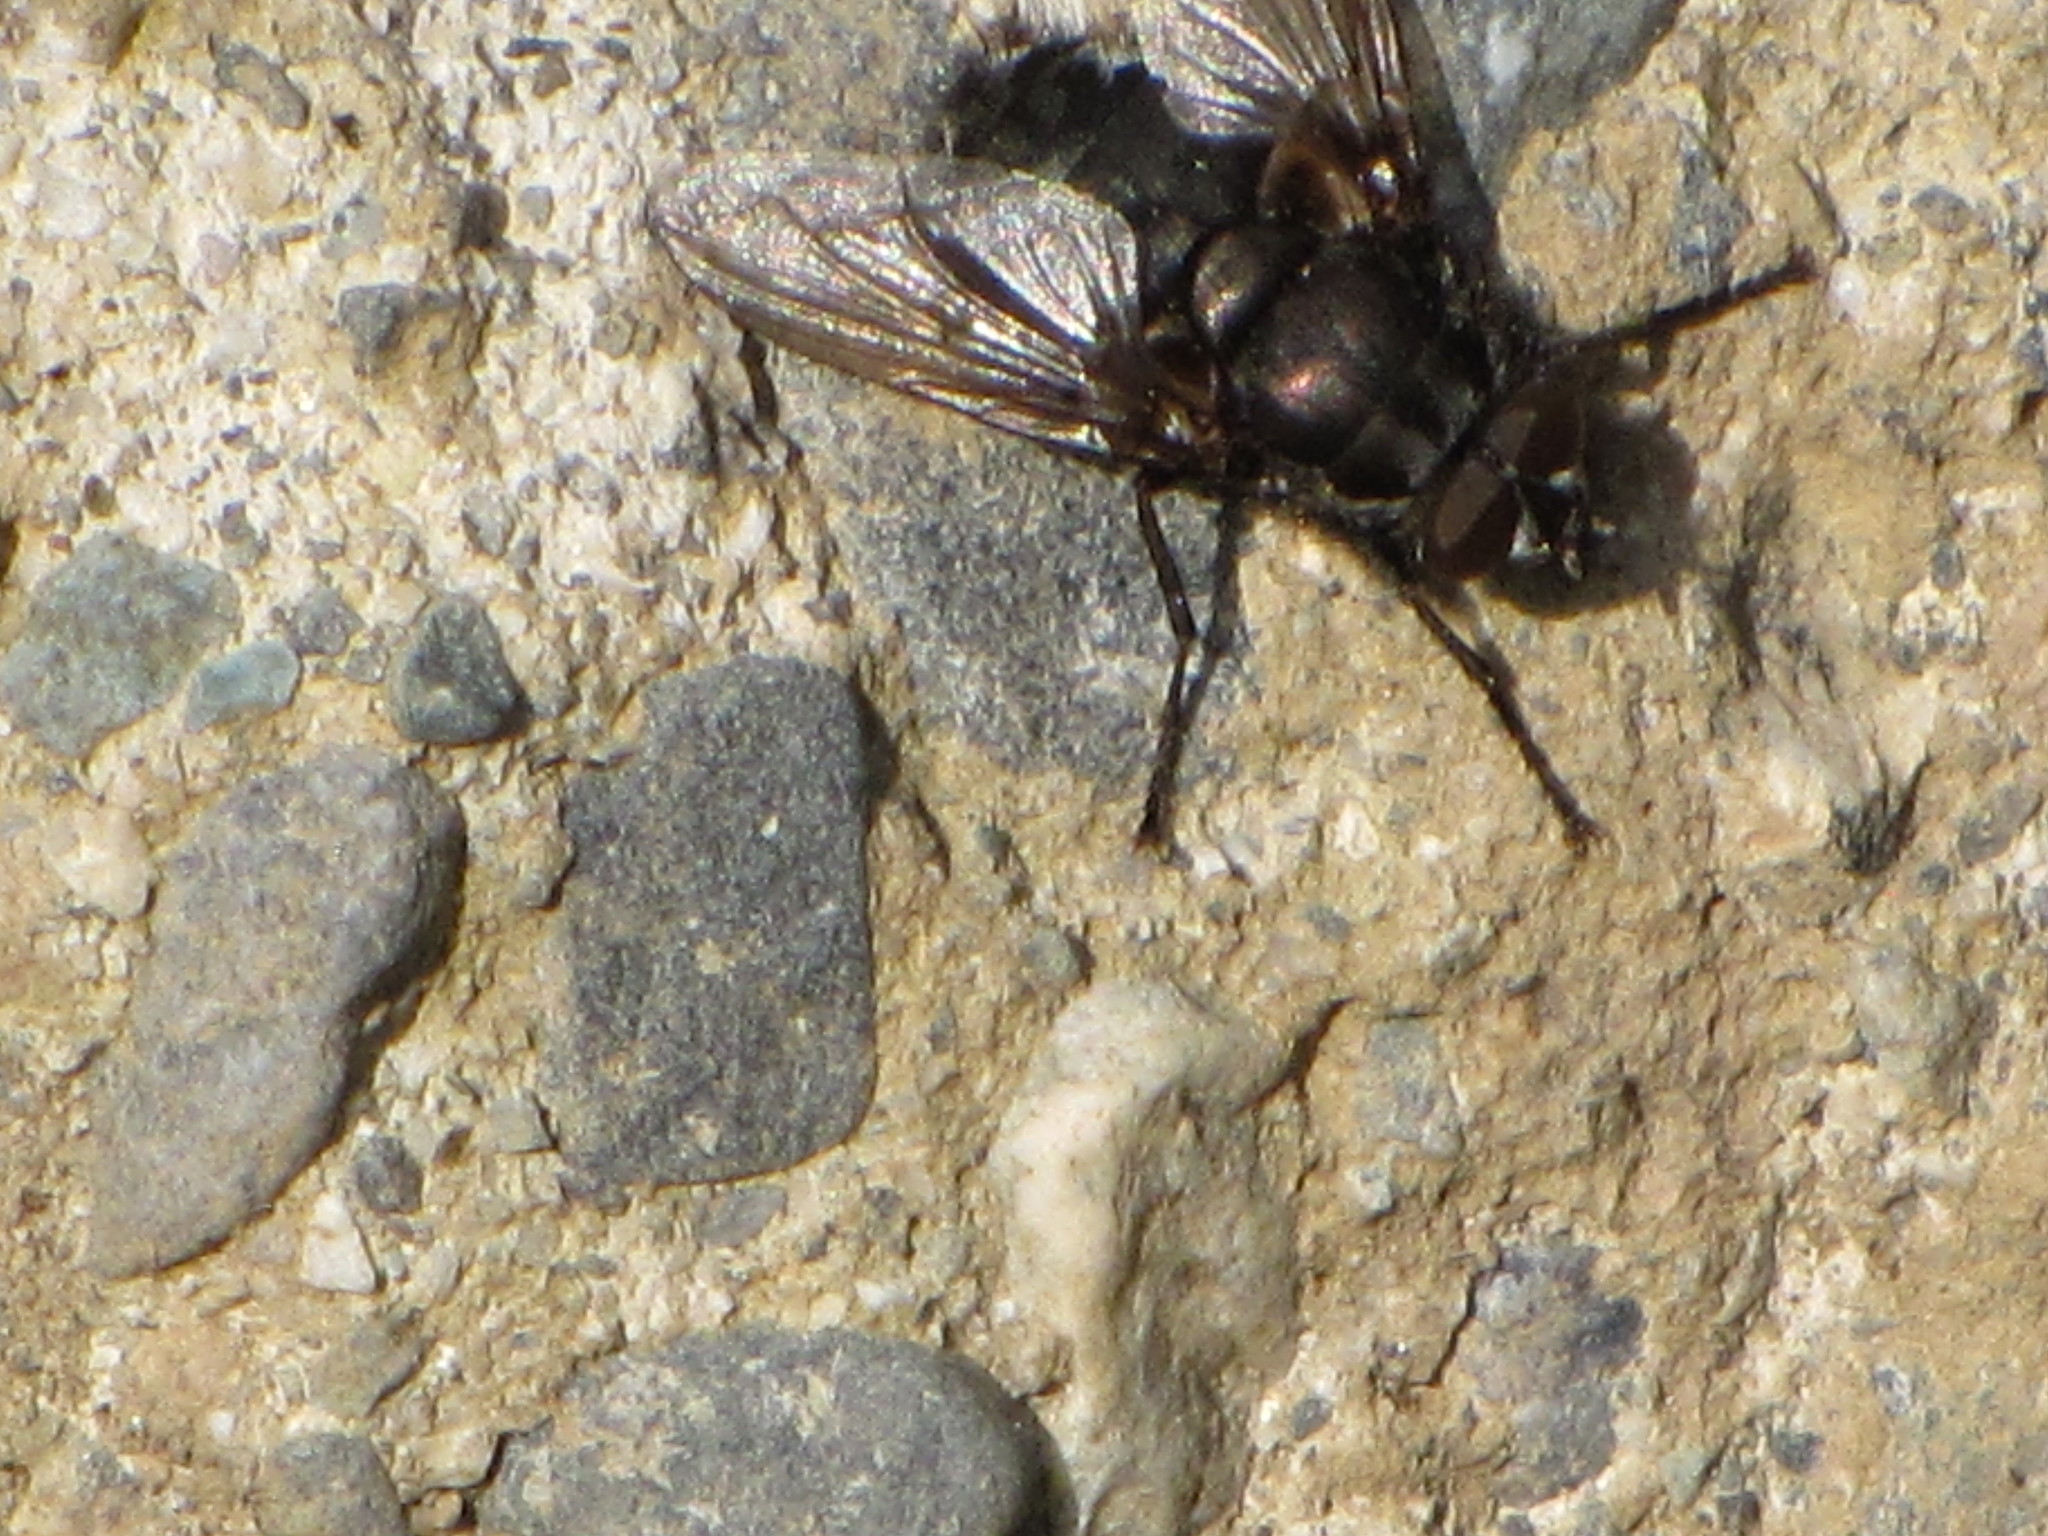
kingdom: Animalia
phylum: Arthropoda
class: Insecta
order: Diptera
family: Polleniidae
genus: Pollenia
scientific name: Pollenia vagabunda
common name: Vagabund cluster fly
